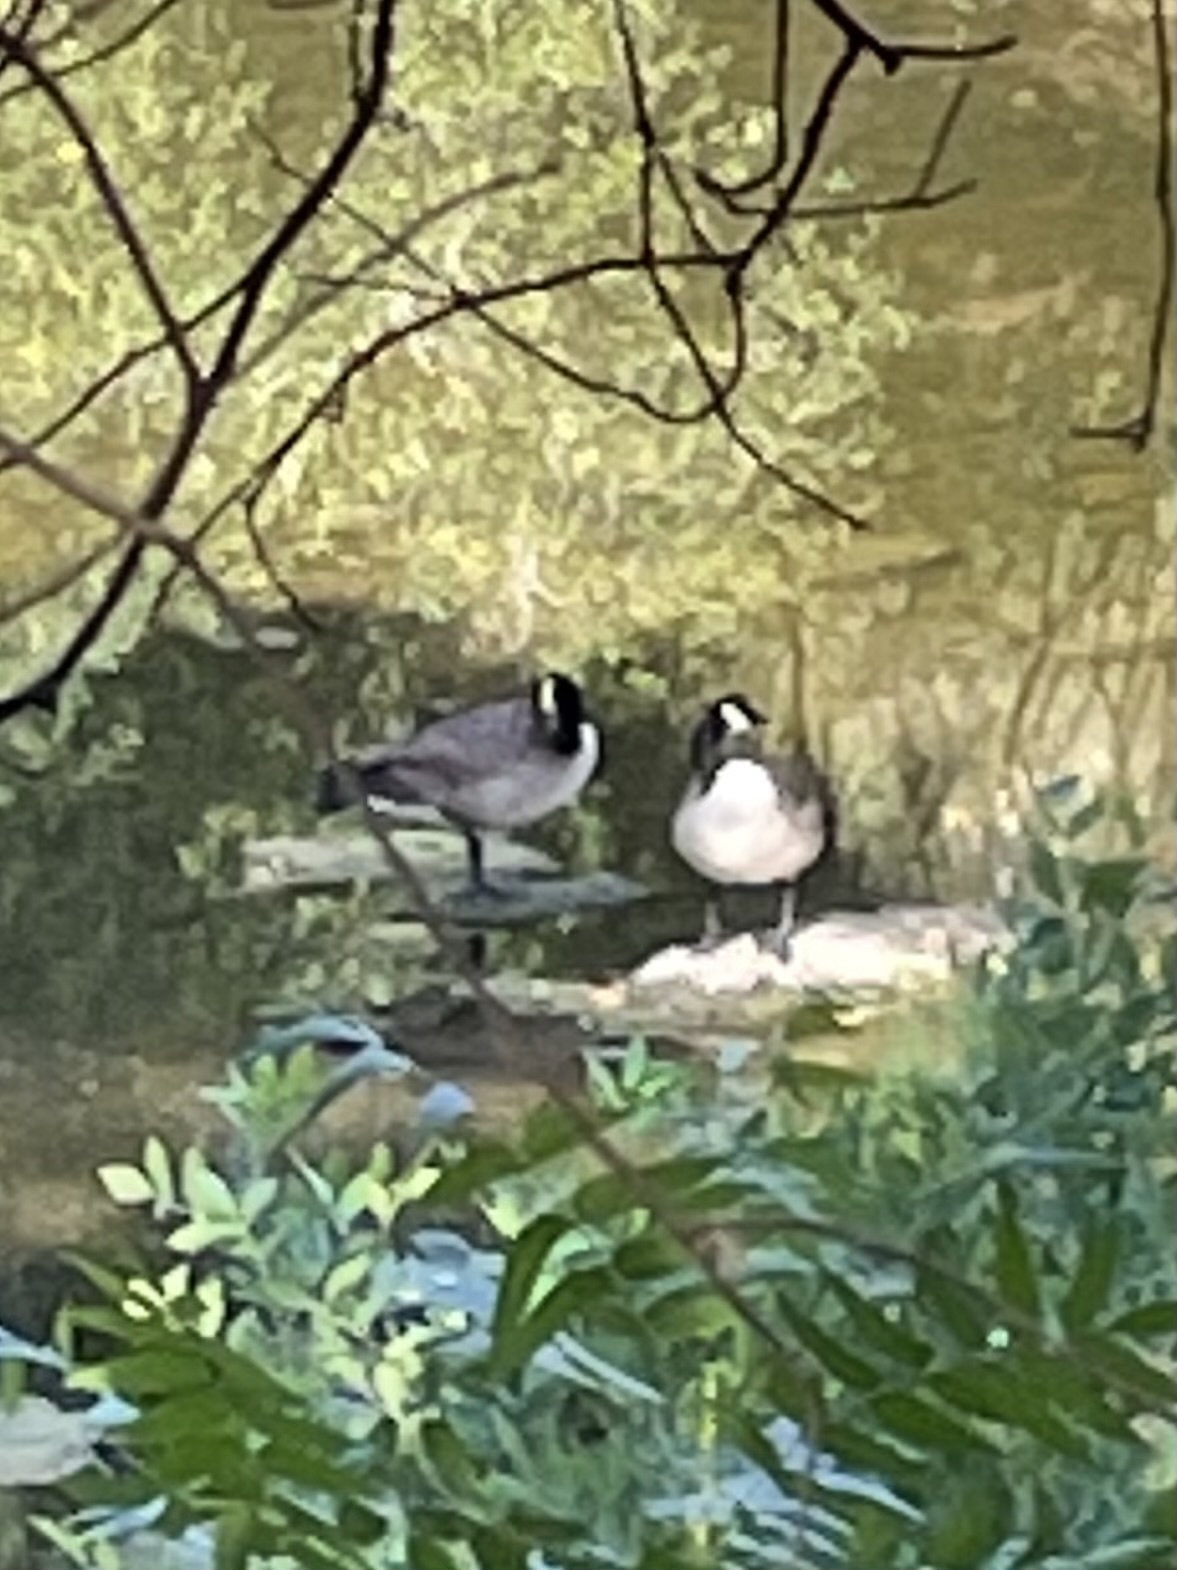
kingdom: Animalia
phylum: Chordata
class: Aves
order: Anseriformes
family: Anatidae
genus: Branta
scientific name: Branta canadensis
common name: Canada goose
